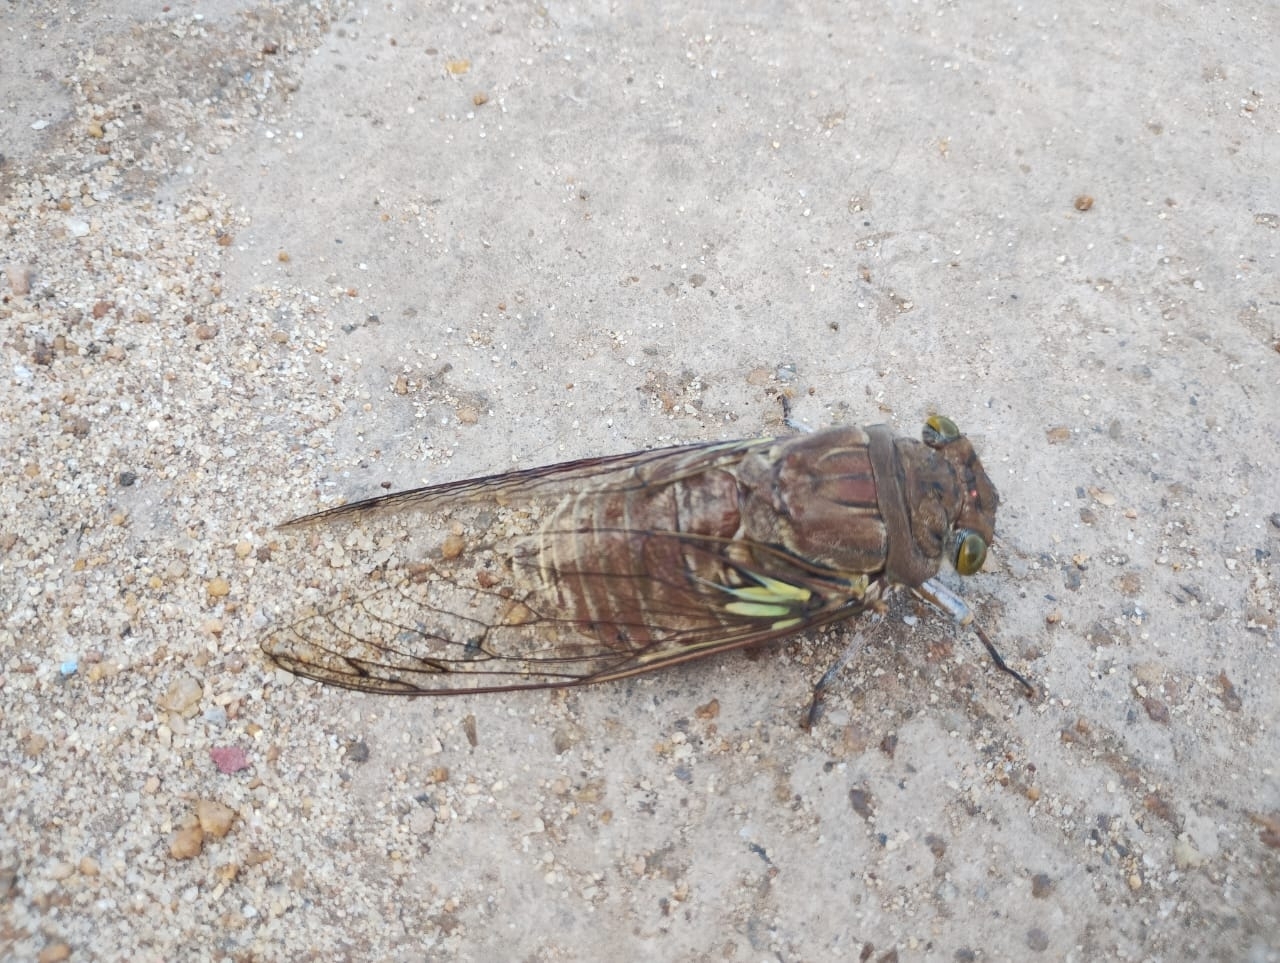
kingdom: Animalia
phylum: Arthropoda
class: Insecta
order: Hemiptera
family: Cicadidae
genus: Quesada
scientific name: Quesada gigas
